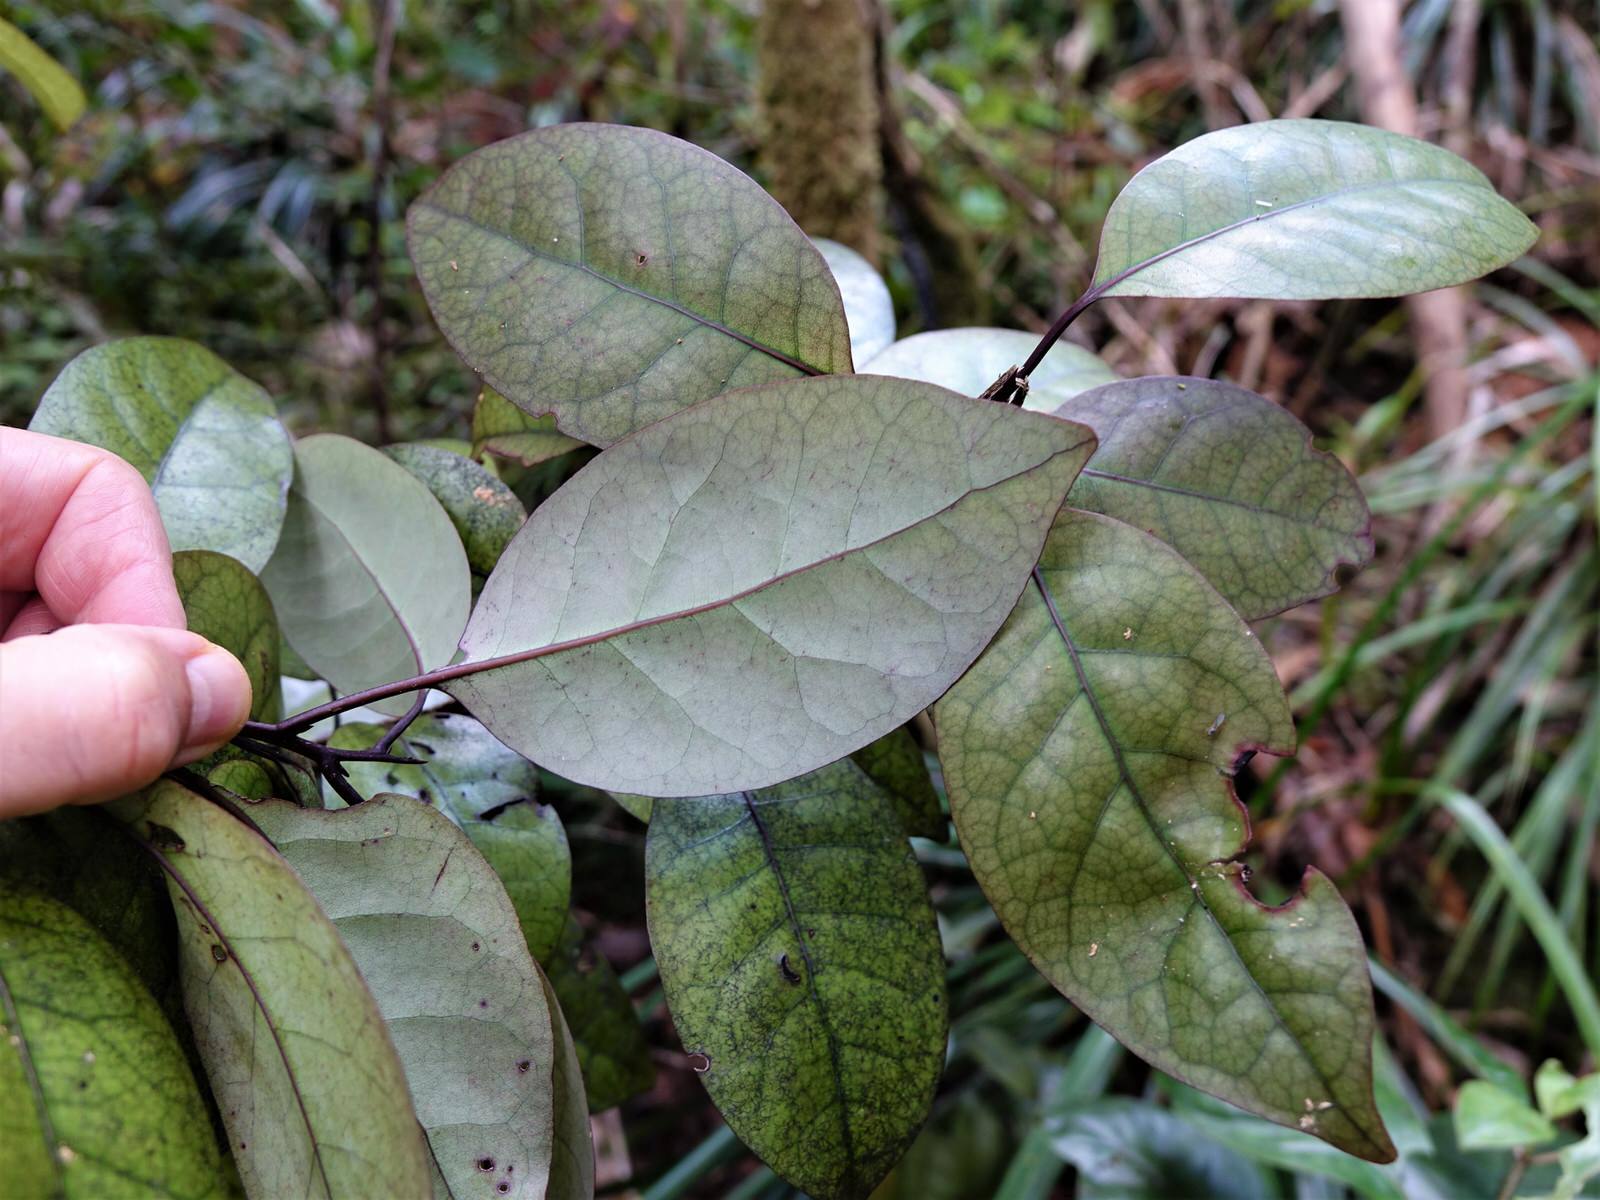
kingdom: Plantae
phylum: Tracheophyta
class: Magnoliopsida
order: Laurales
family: Lauraceae
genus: Litsea
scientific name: Litsea calicaris
